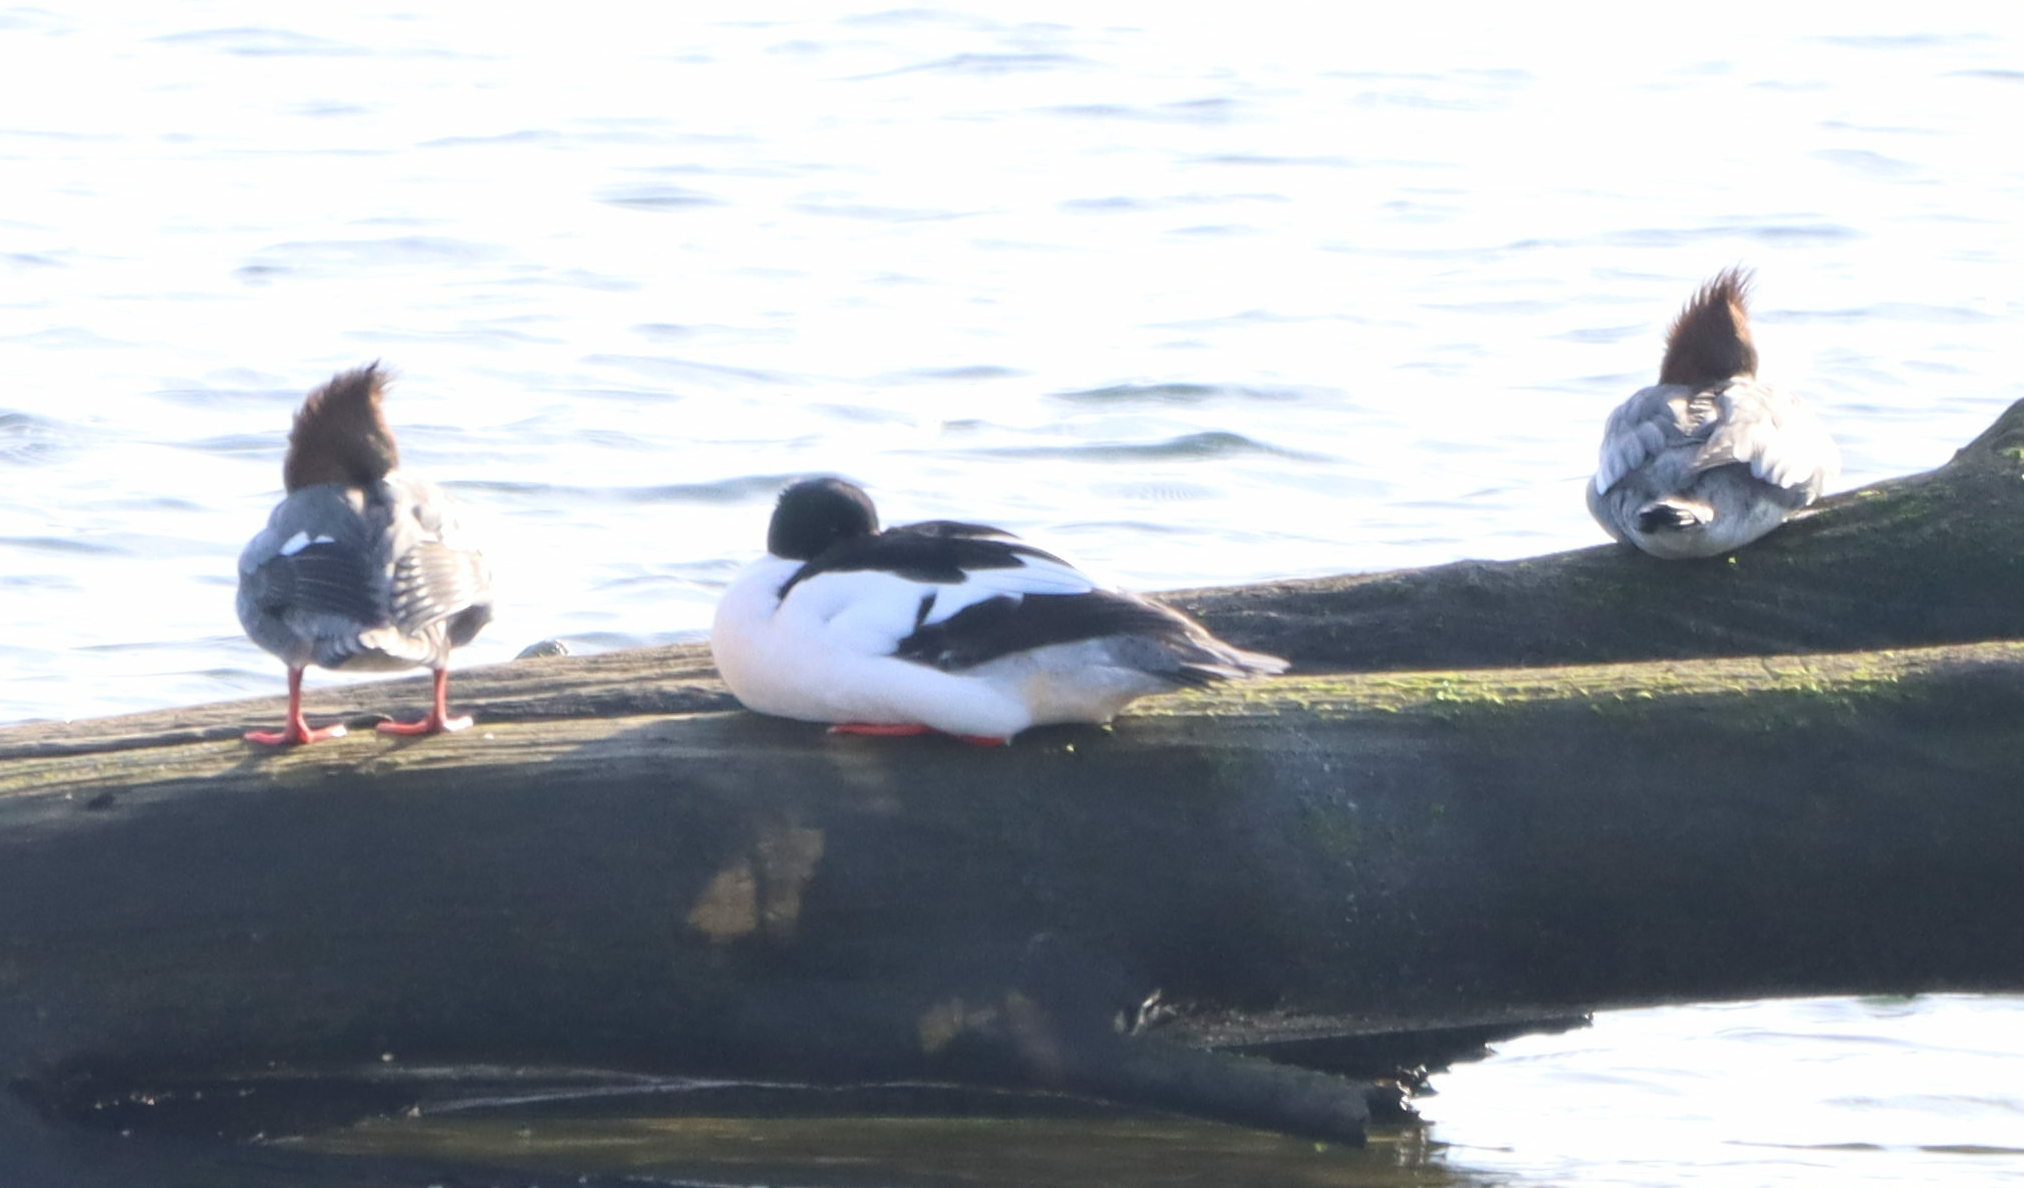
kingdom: Animalia
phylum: Chordata
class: Aves
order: Anseriformes
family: Anatidae
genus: Mergus
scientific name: Mergus merganser
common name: Common merganser
